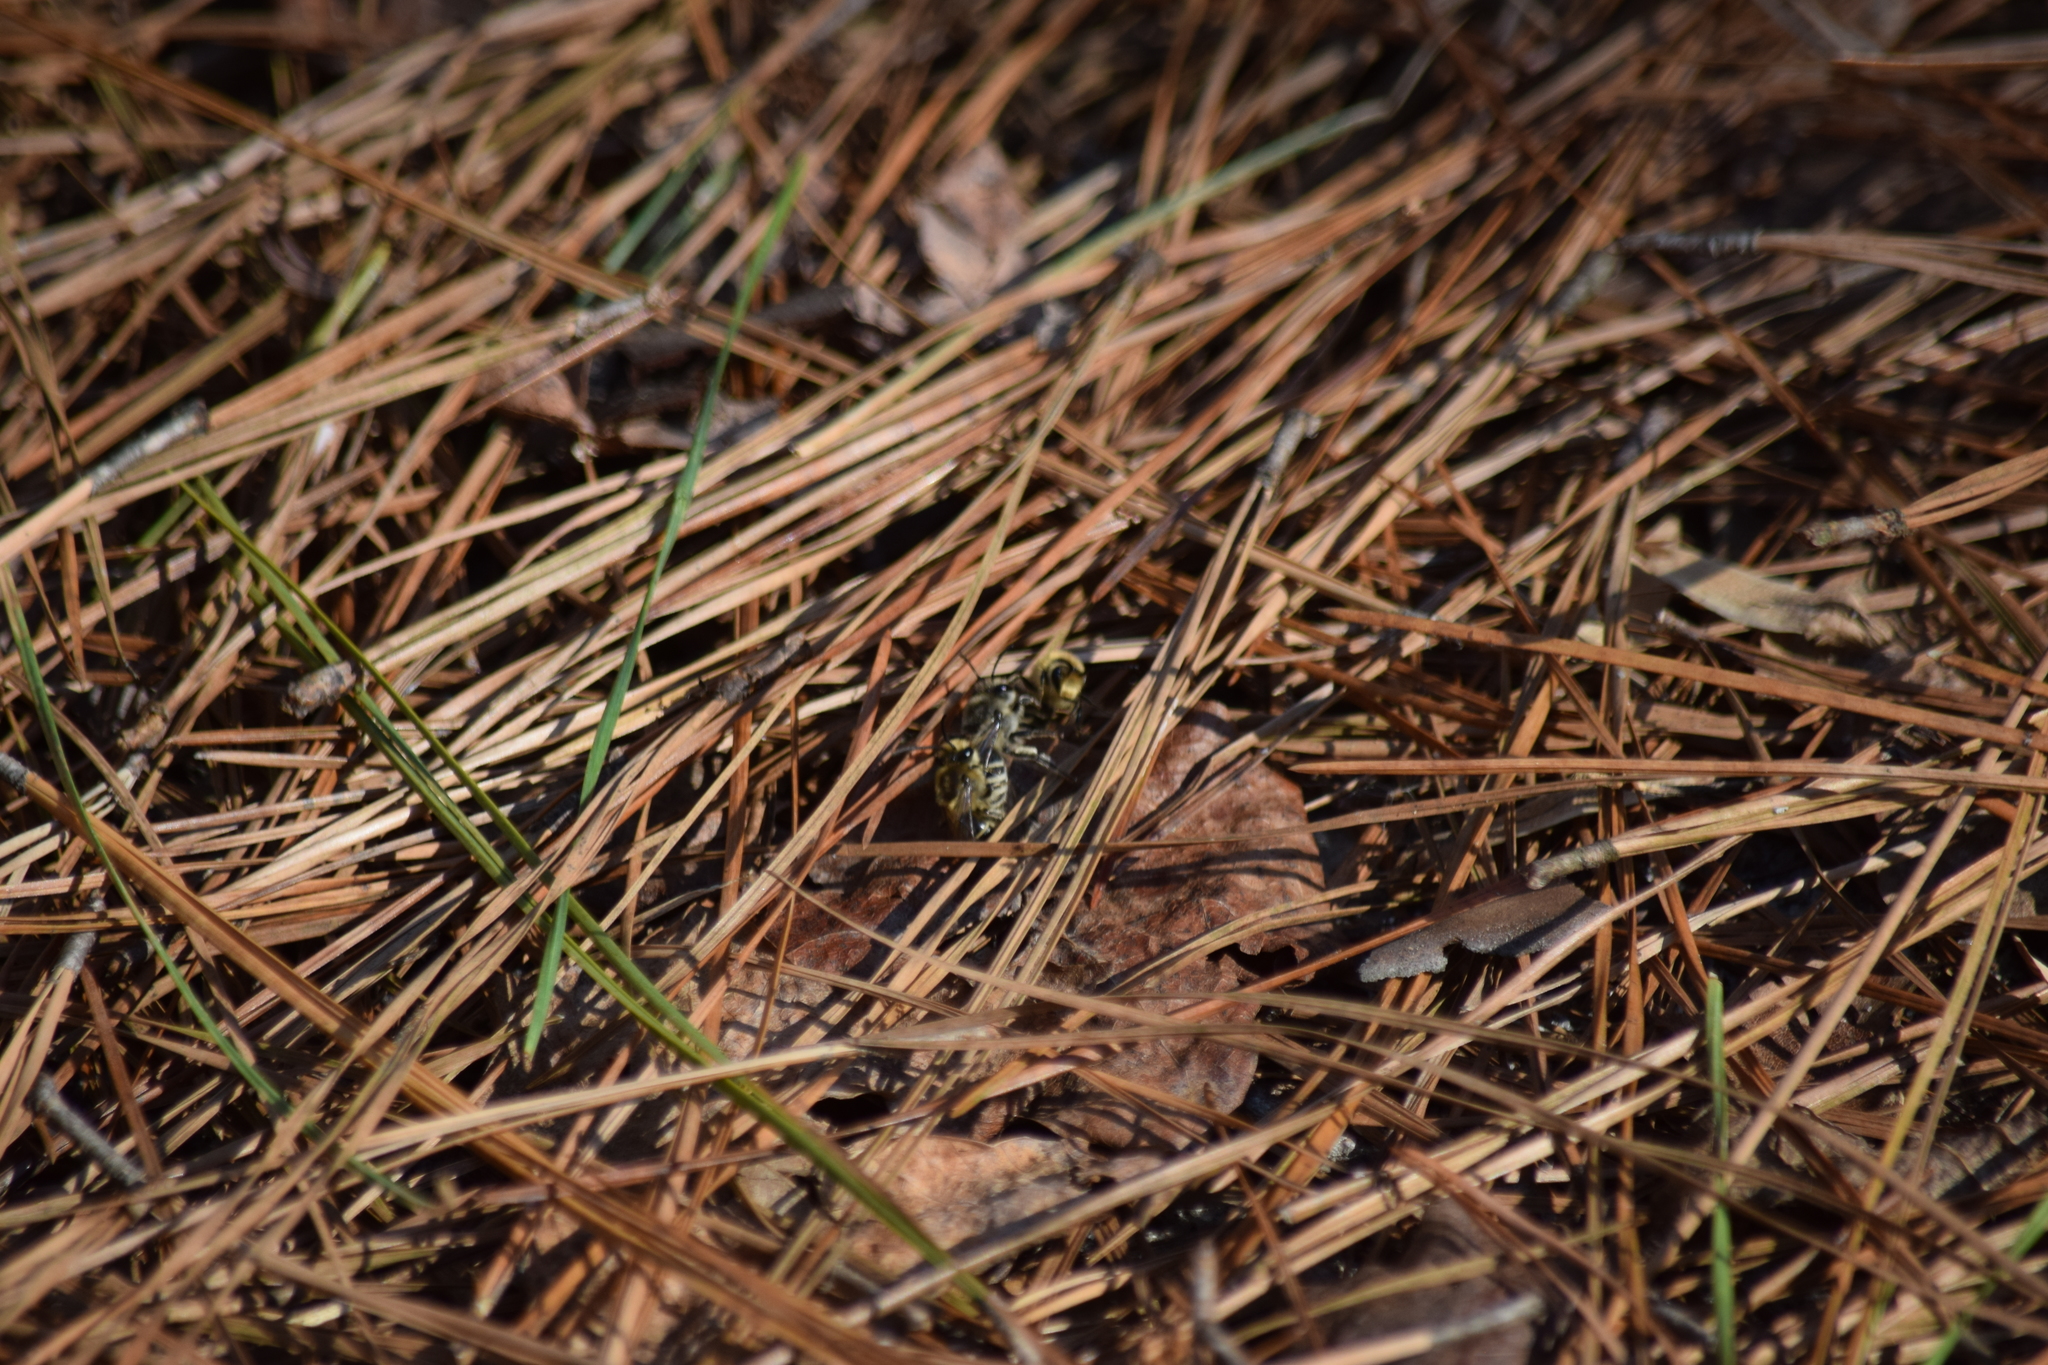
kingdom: Animalia
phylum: Arthropoda
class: Insecta
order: Hymenoptera
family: Colletidae
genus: Colletes
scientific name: Colletes inaequalis
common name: Unequal cellophane bee
